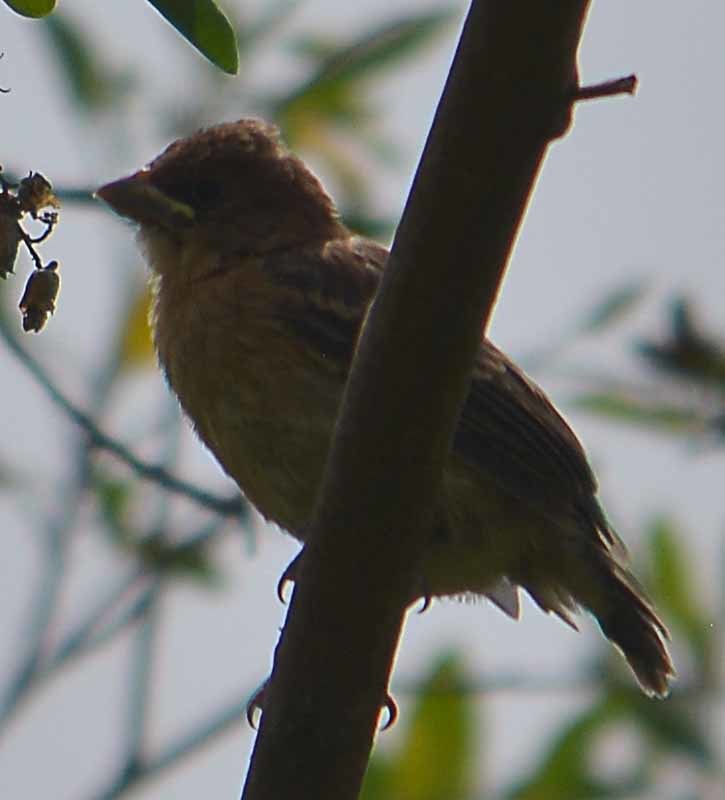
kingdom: Animalia
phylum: Chordata
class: Aves
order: Passeriformes
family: Cardinalidae
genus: Passerina
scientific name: Passerina caerulea
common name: Blue grosbeak
